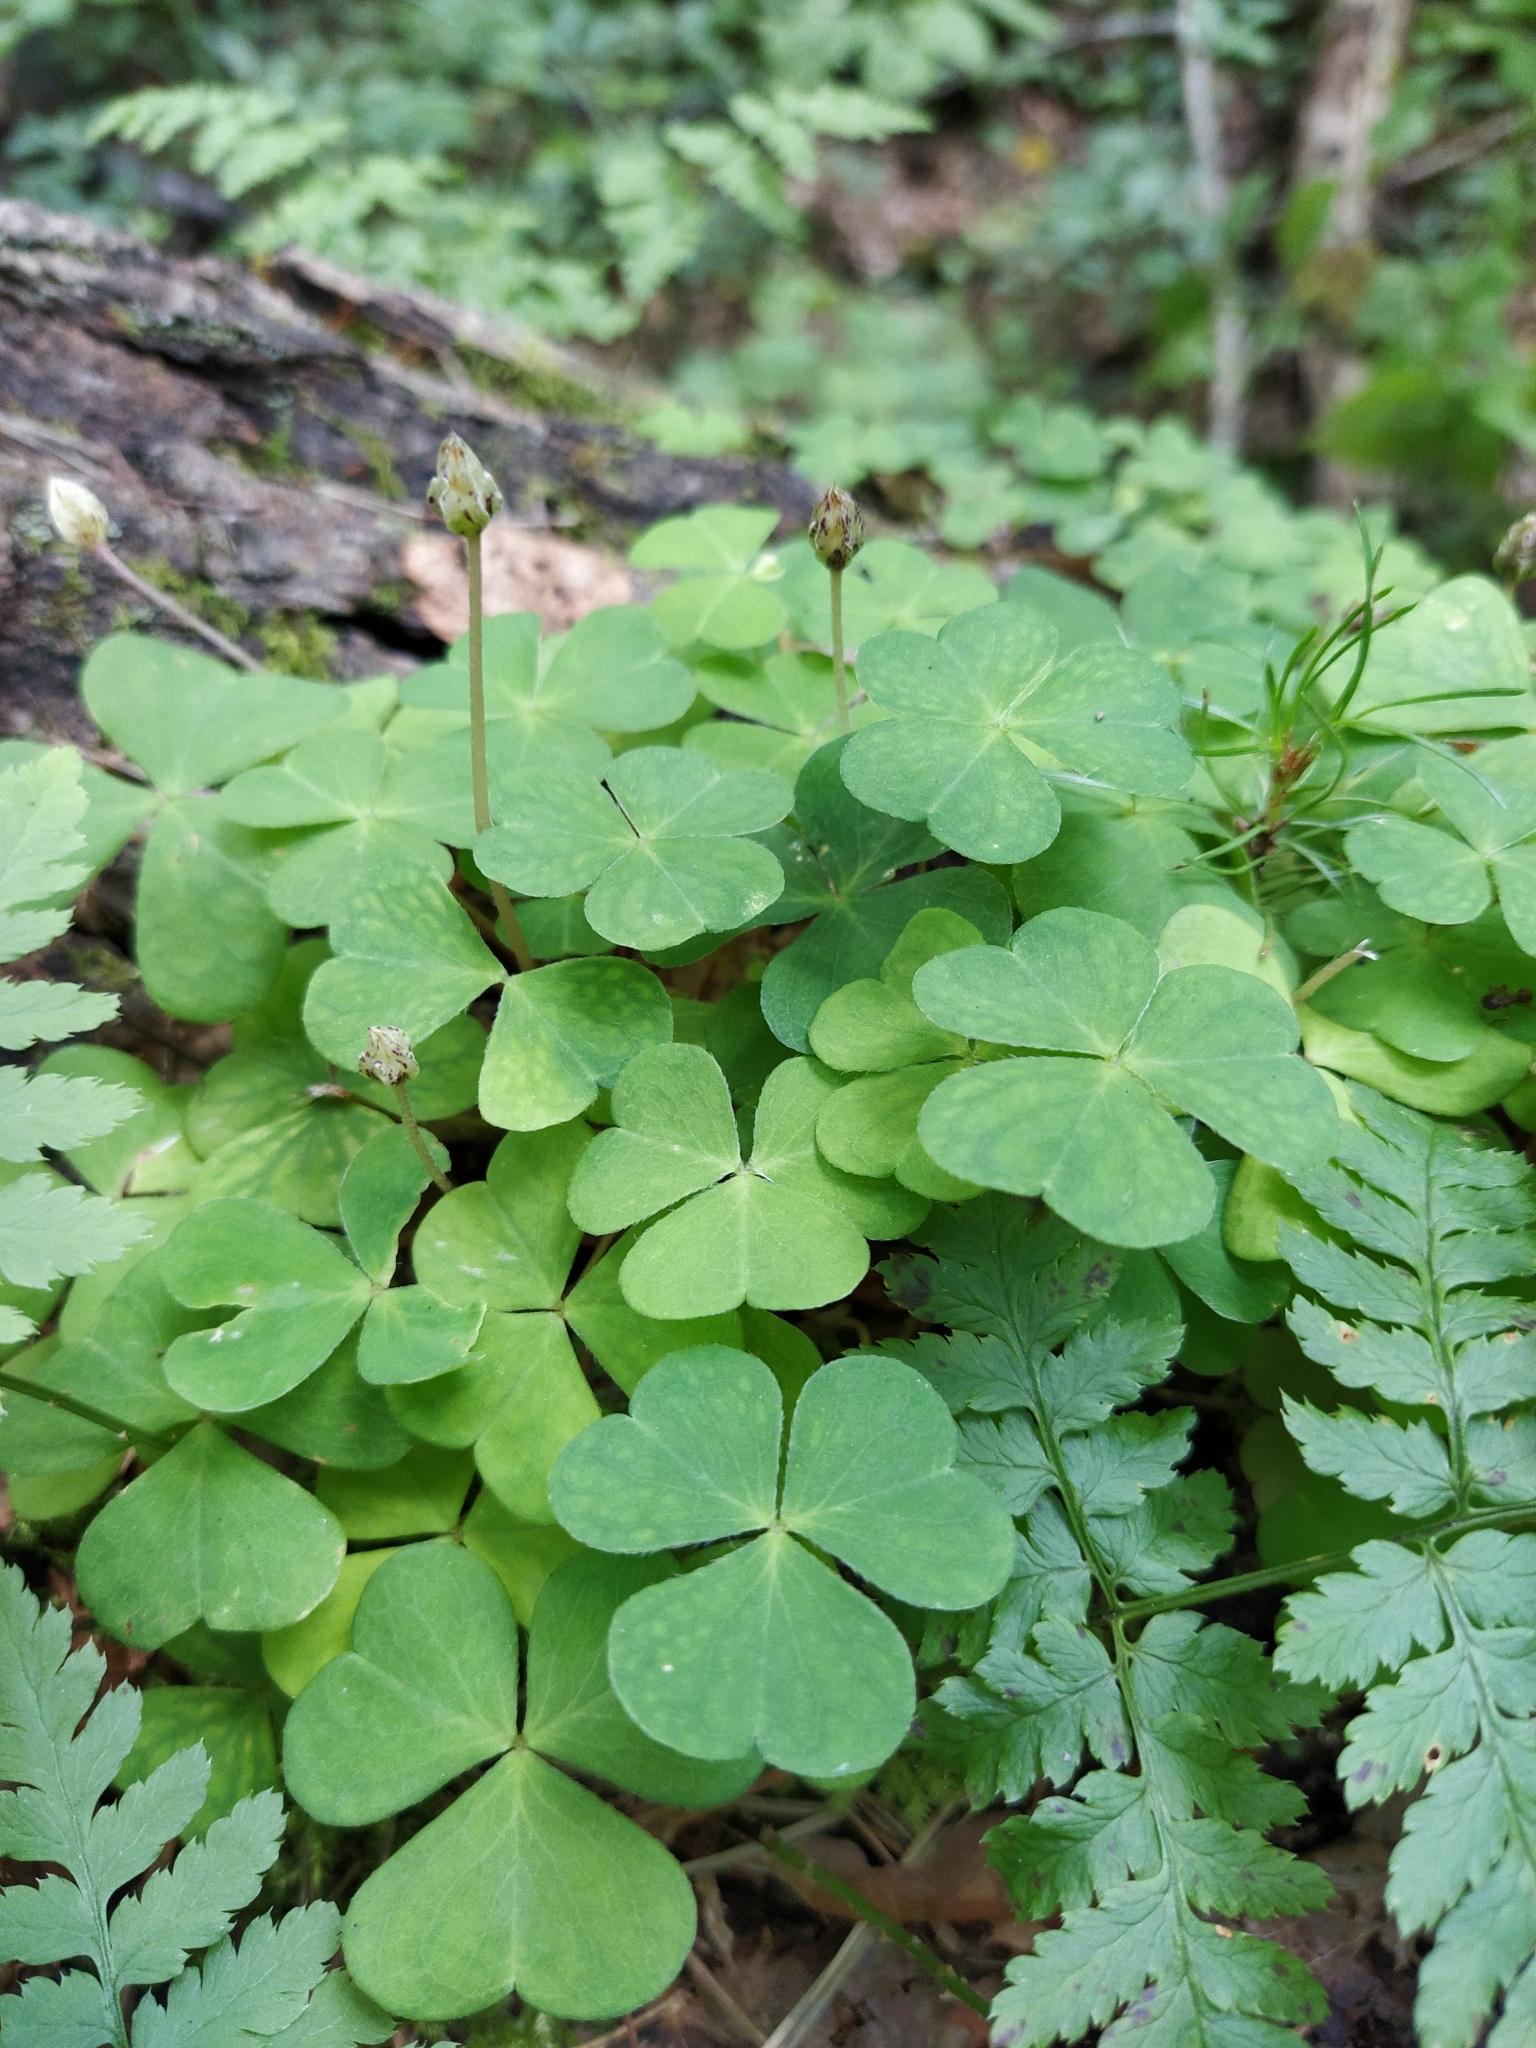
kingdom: Plantae
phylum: Tracheophyta
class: Magnoliopsida
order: Oxalidales
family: Oxalidaceae
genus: Oxalis
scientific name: Oxalis acetosella
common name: Wood-sorrel
